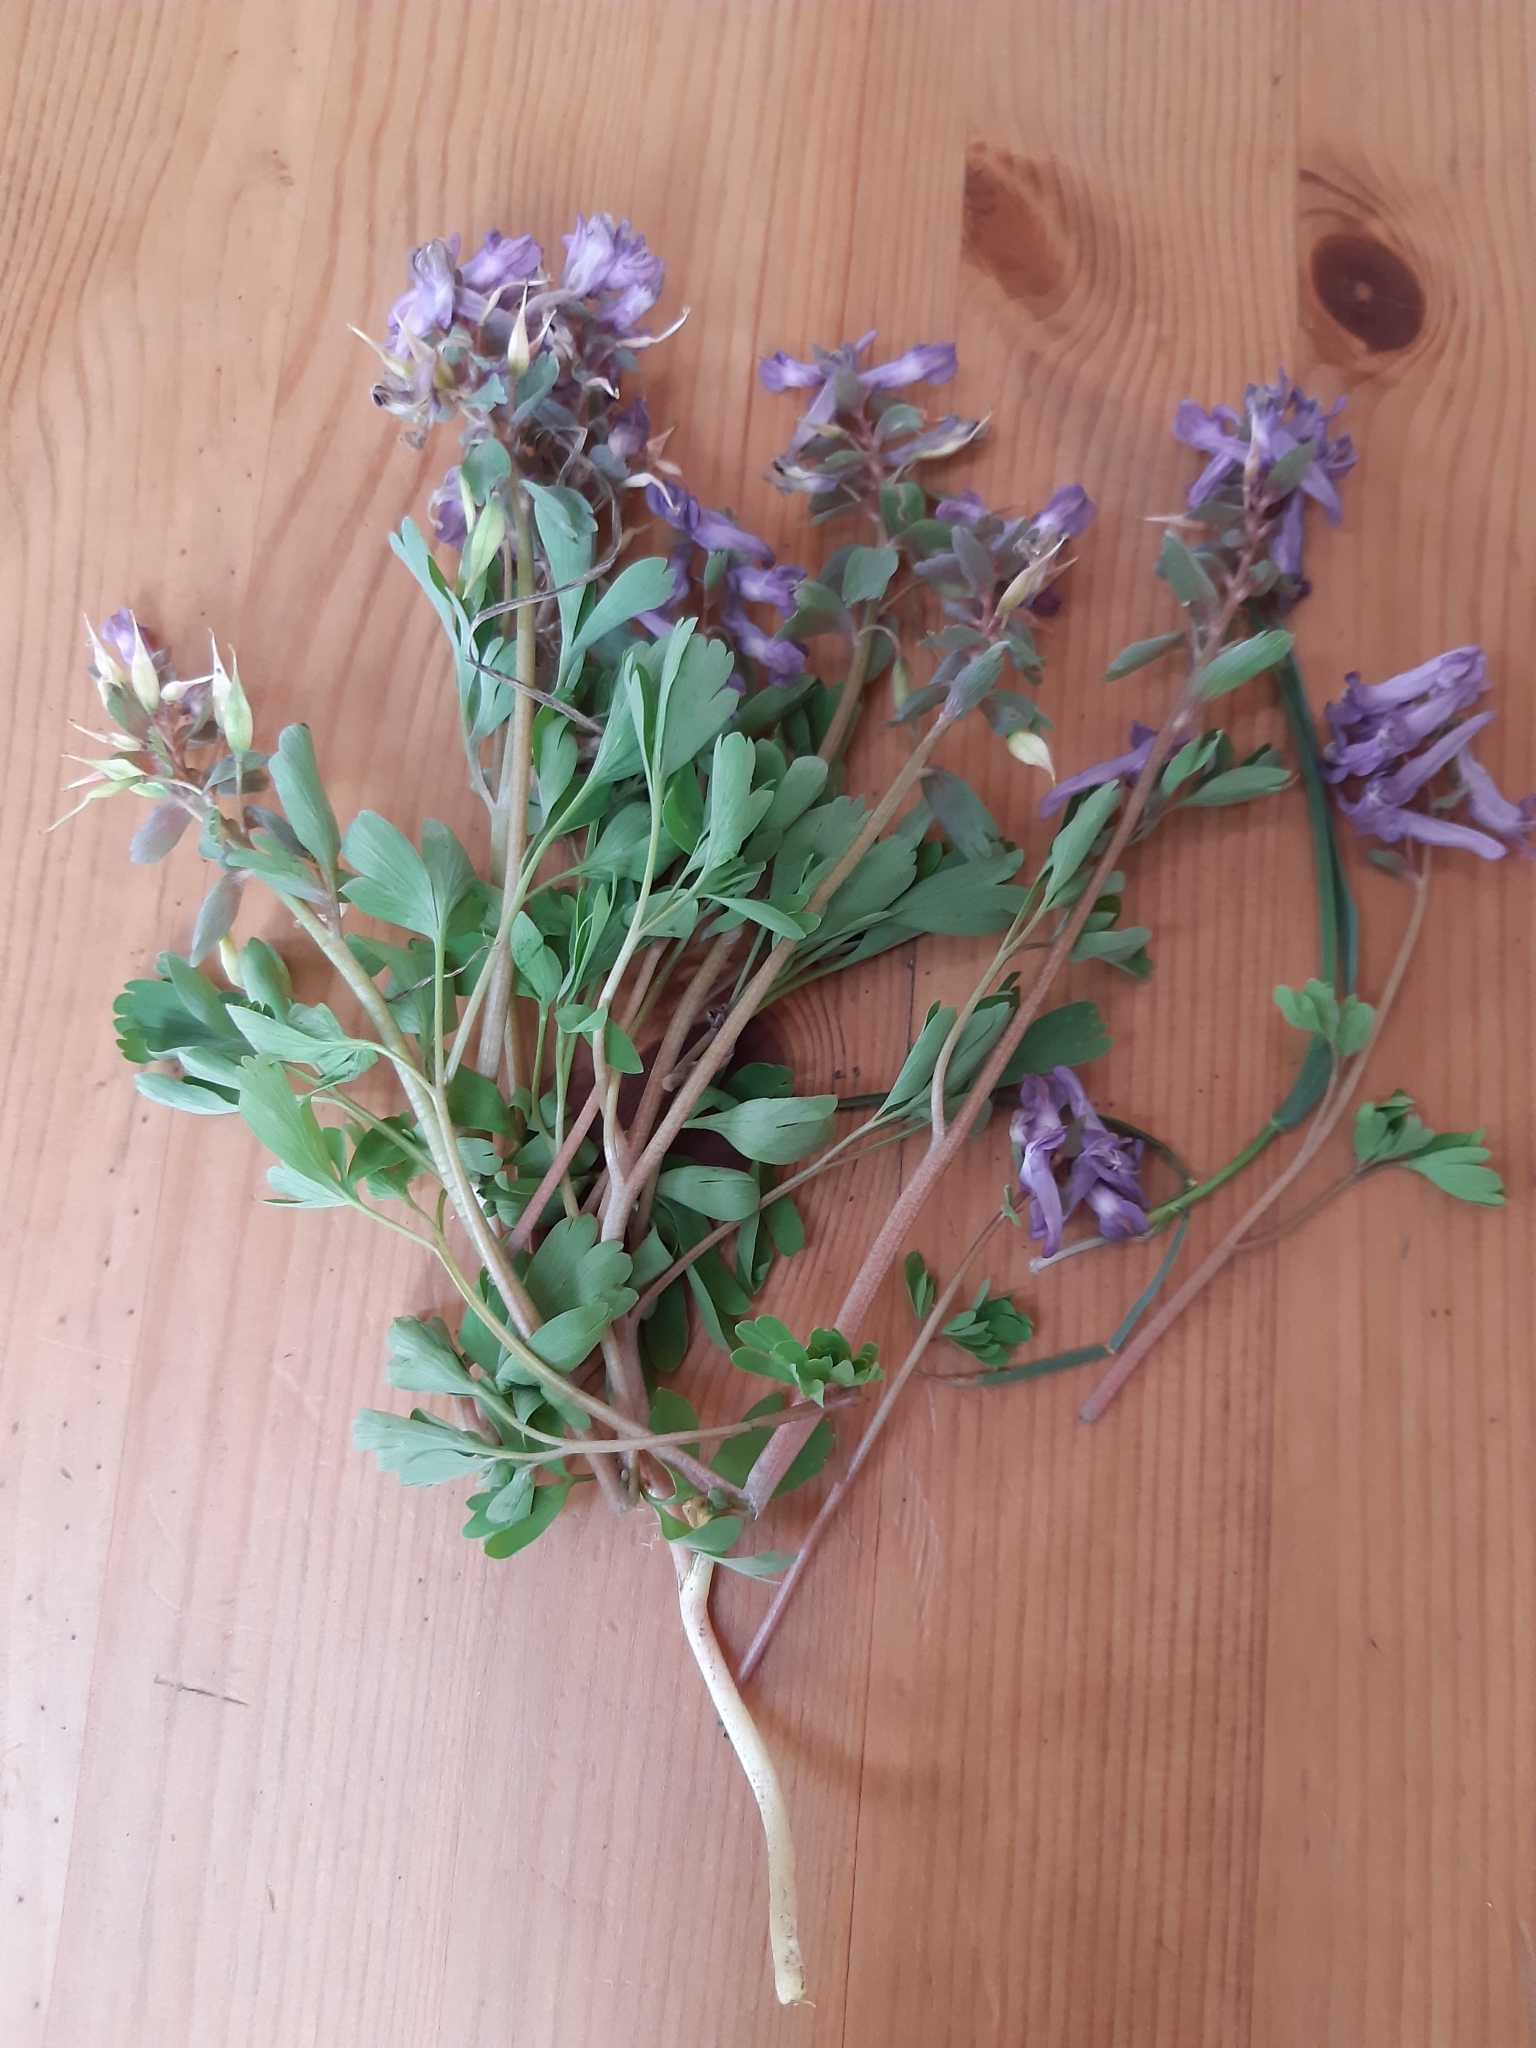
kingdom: Plantae
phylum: Tracheophyta
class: Magnoliopsida
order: Ranunculales
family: Papaveraceae
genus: Corydalis
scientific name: Corydalis hausmannii
